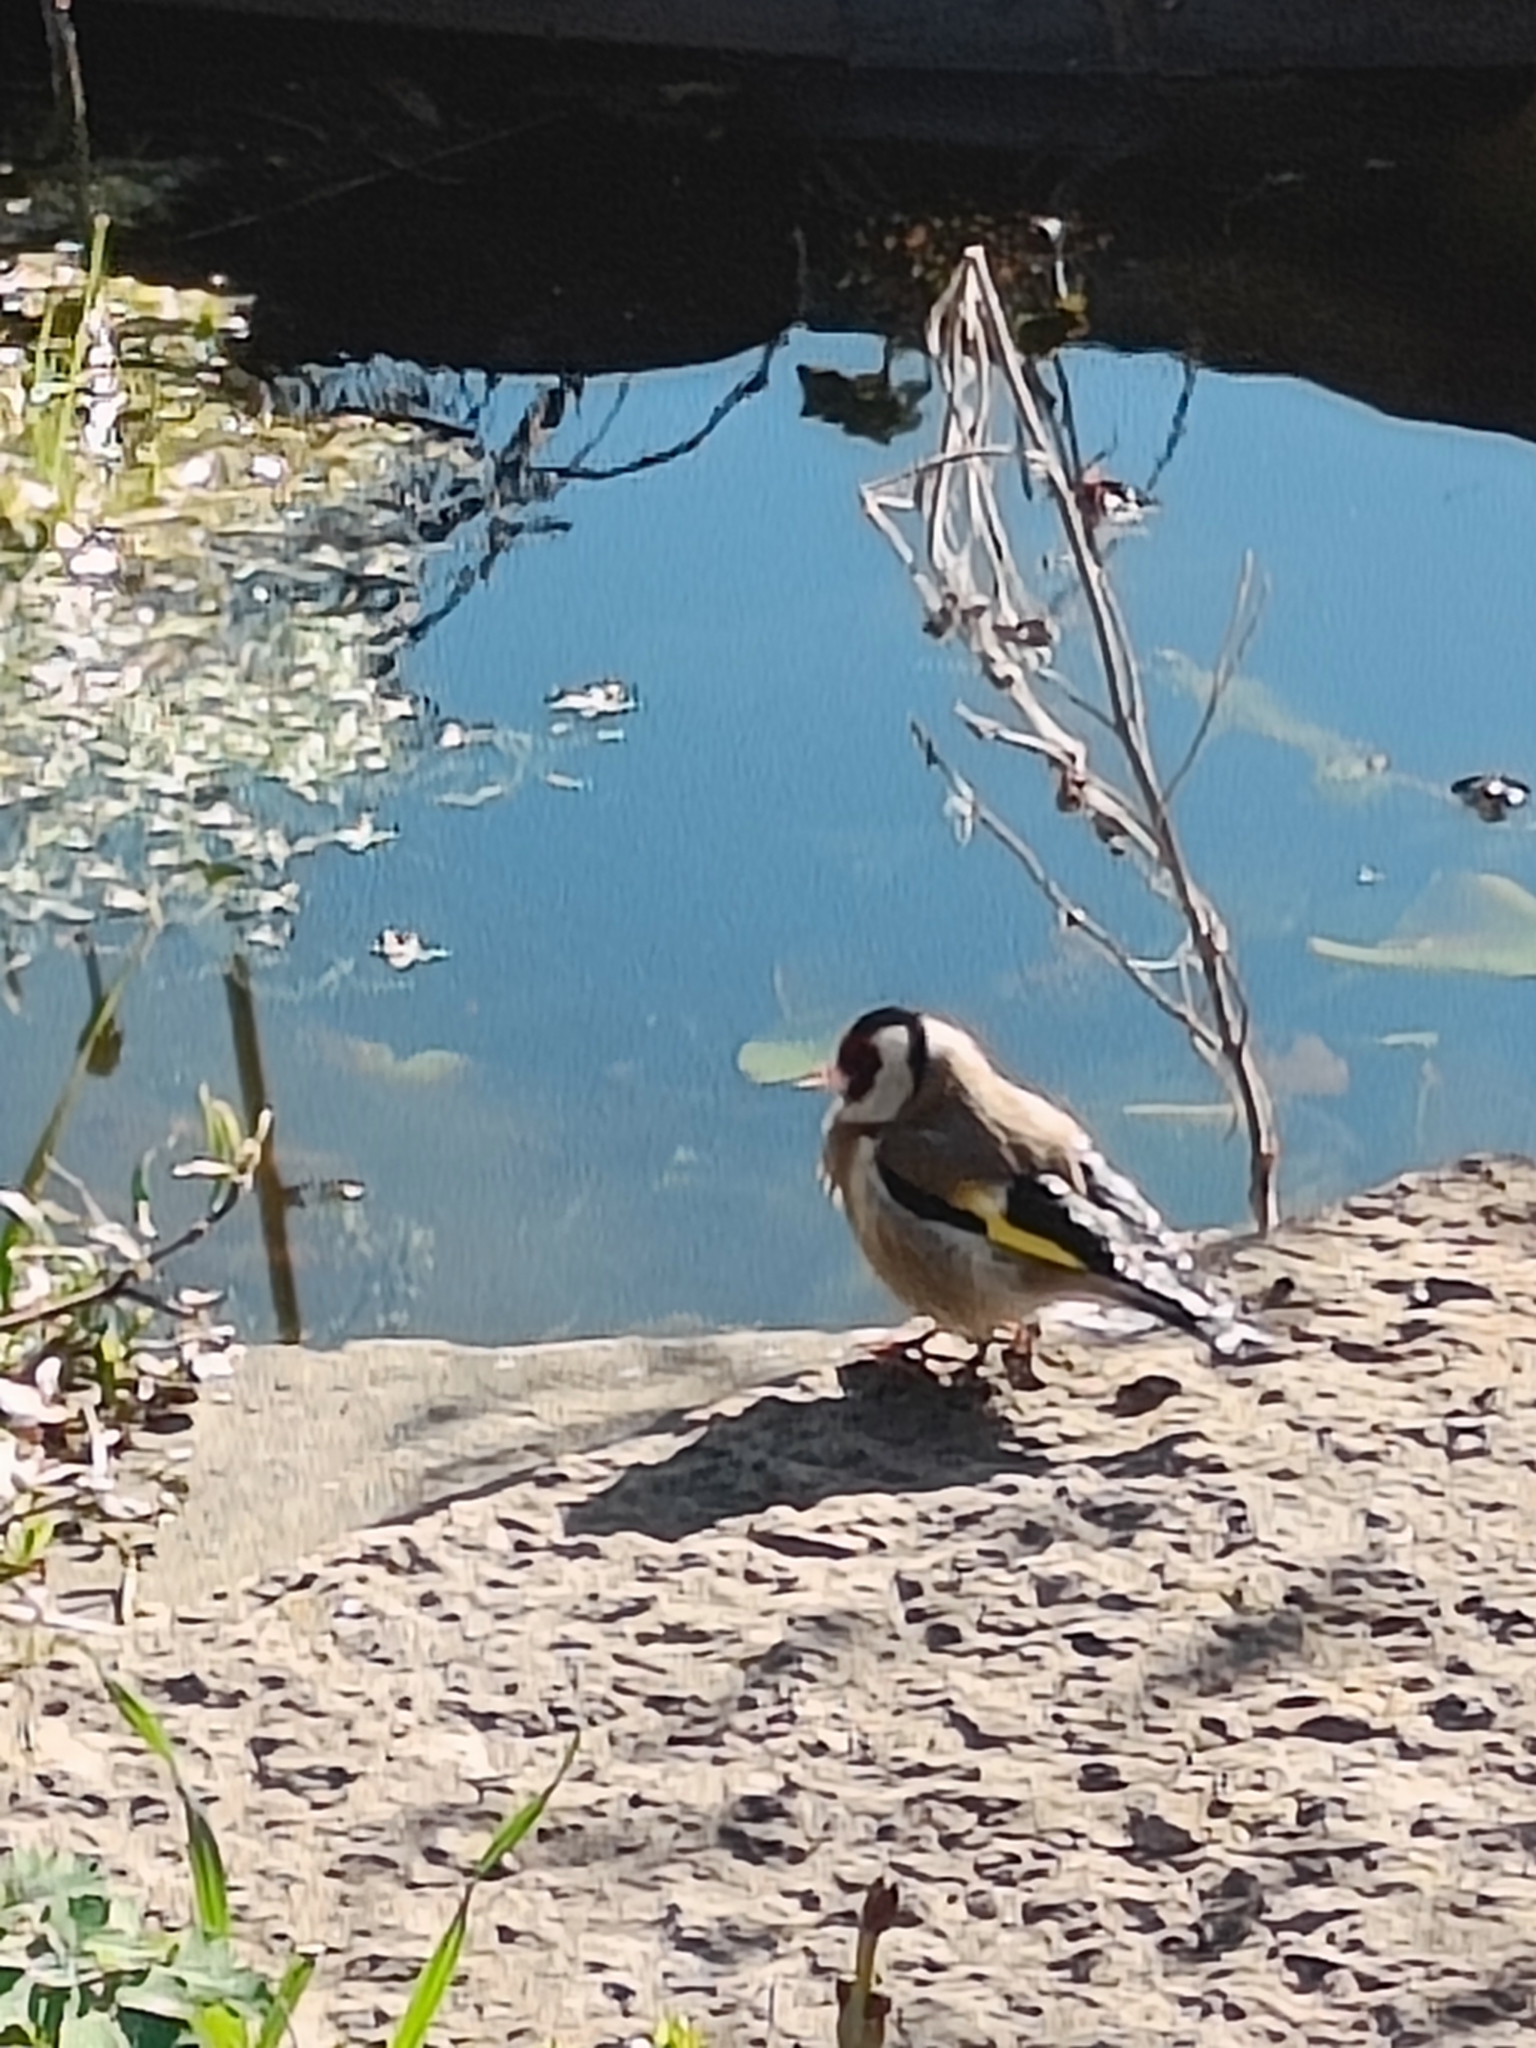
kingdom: Animalia
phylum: Chordata
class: Aves
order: Passeriformes
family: Fringillidae
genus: Carduelis
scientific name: Carduelis carduelis
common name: European goldfinch
